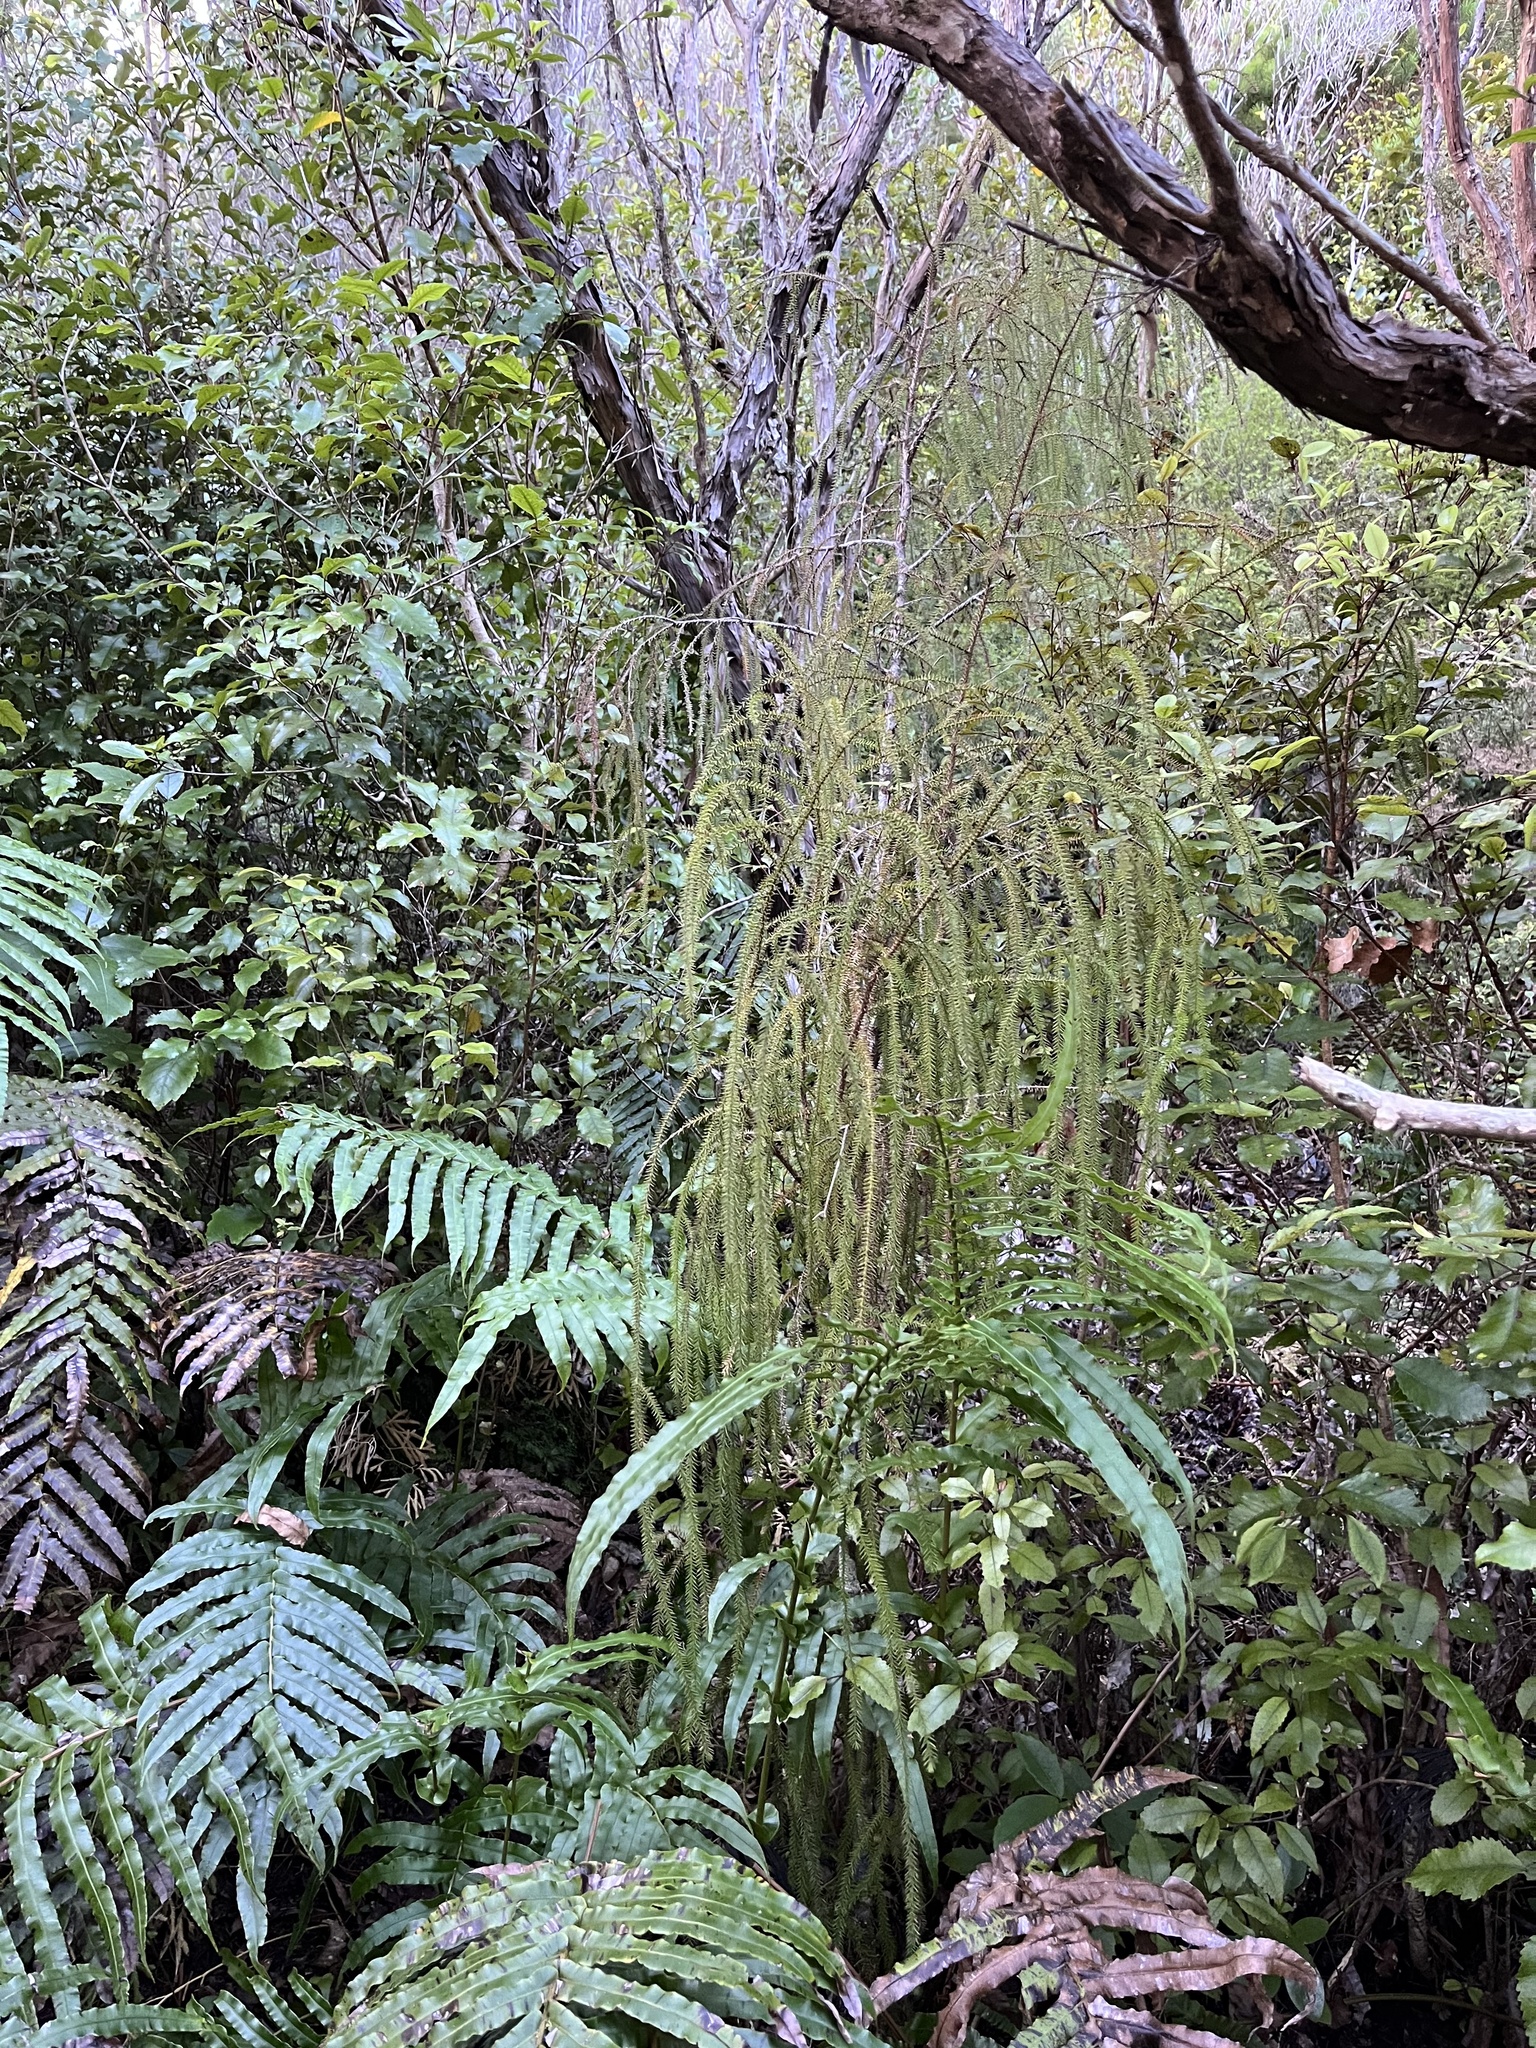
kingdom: Plantae
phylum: Tracheophyta
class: Pinopsida
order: Pinales
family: Podocarpaceae
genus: Dacrydium
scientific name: Dacrydium cupressinum
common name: Red pine
